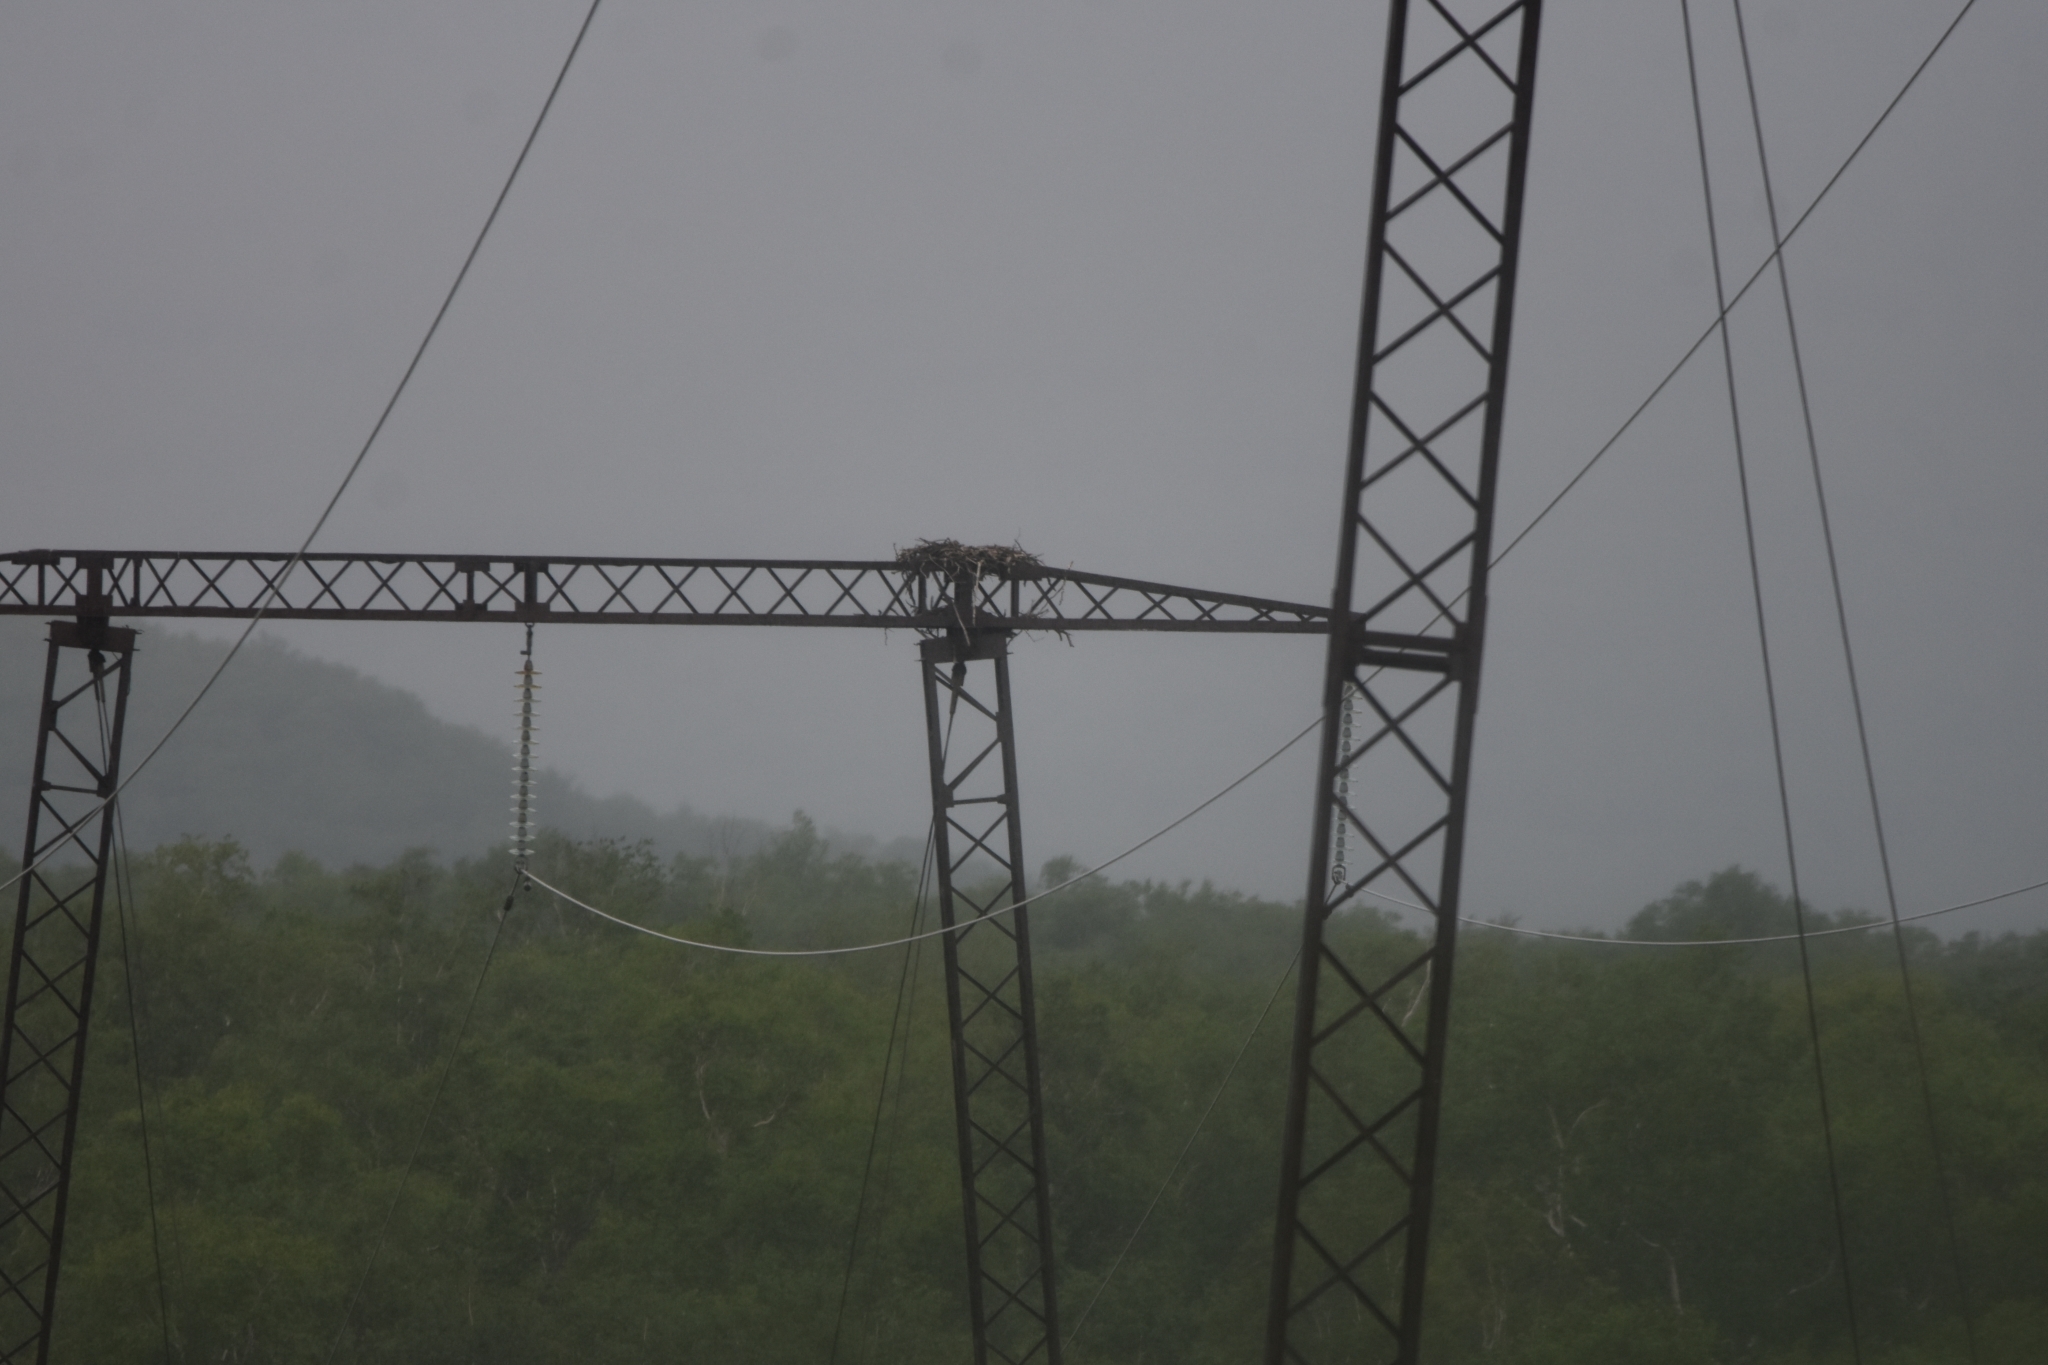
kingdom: Animalia
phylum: Chordata
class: Aves
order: Accipitriformes
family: Pandionidae
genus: Pandion
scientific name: Pandion haliaetus
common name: Osprey
